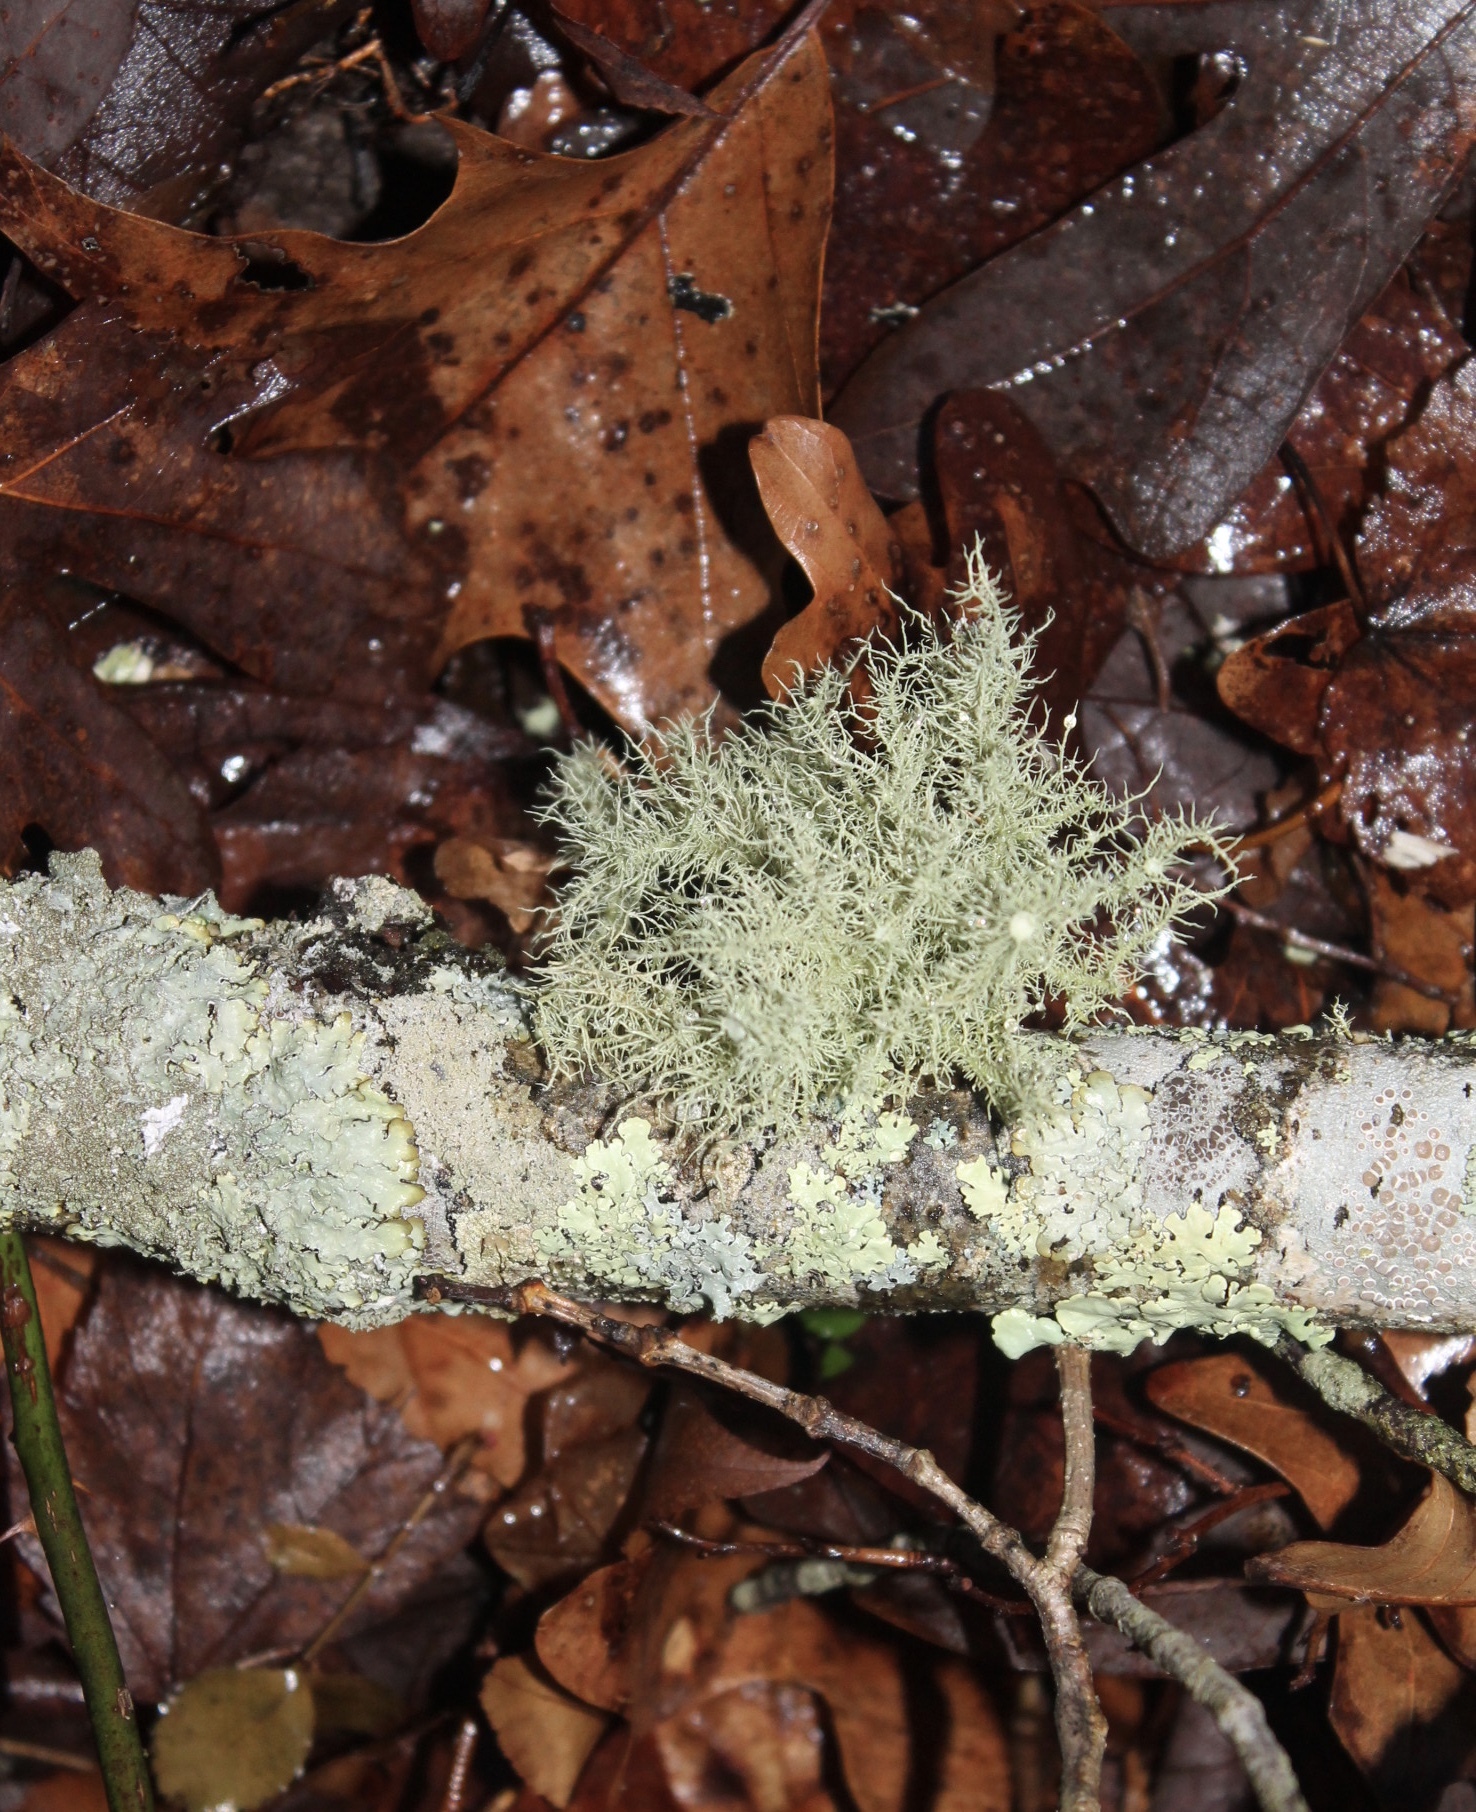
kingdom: Fungi
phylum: Ascomycota
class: Lecanoromycetes
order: Lecanorales
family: Parmeliaceae
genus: Usnea
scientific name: Usnea hirta
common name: Bristly beard lichen
